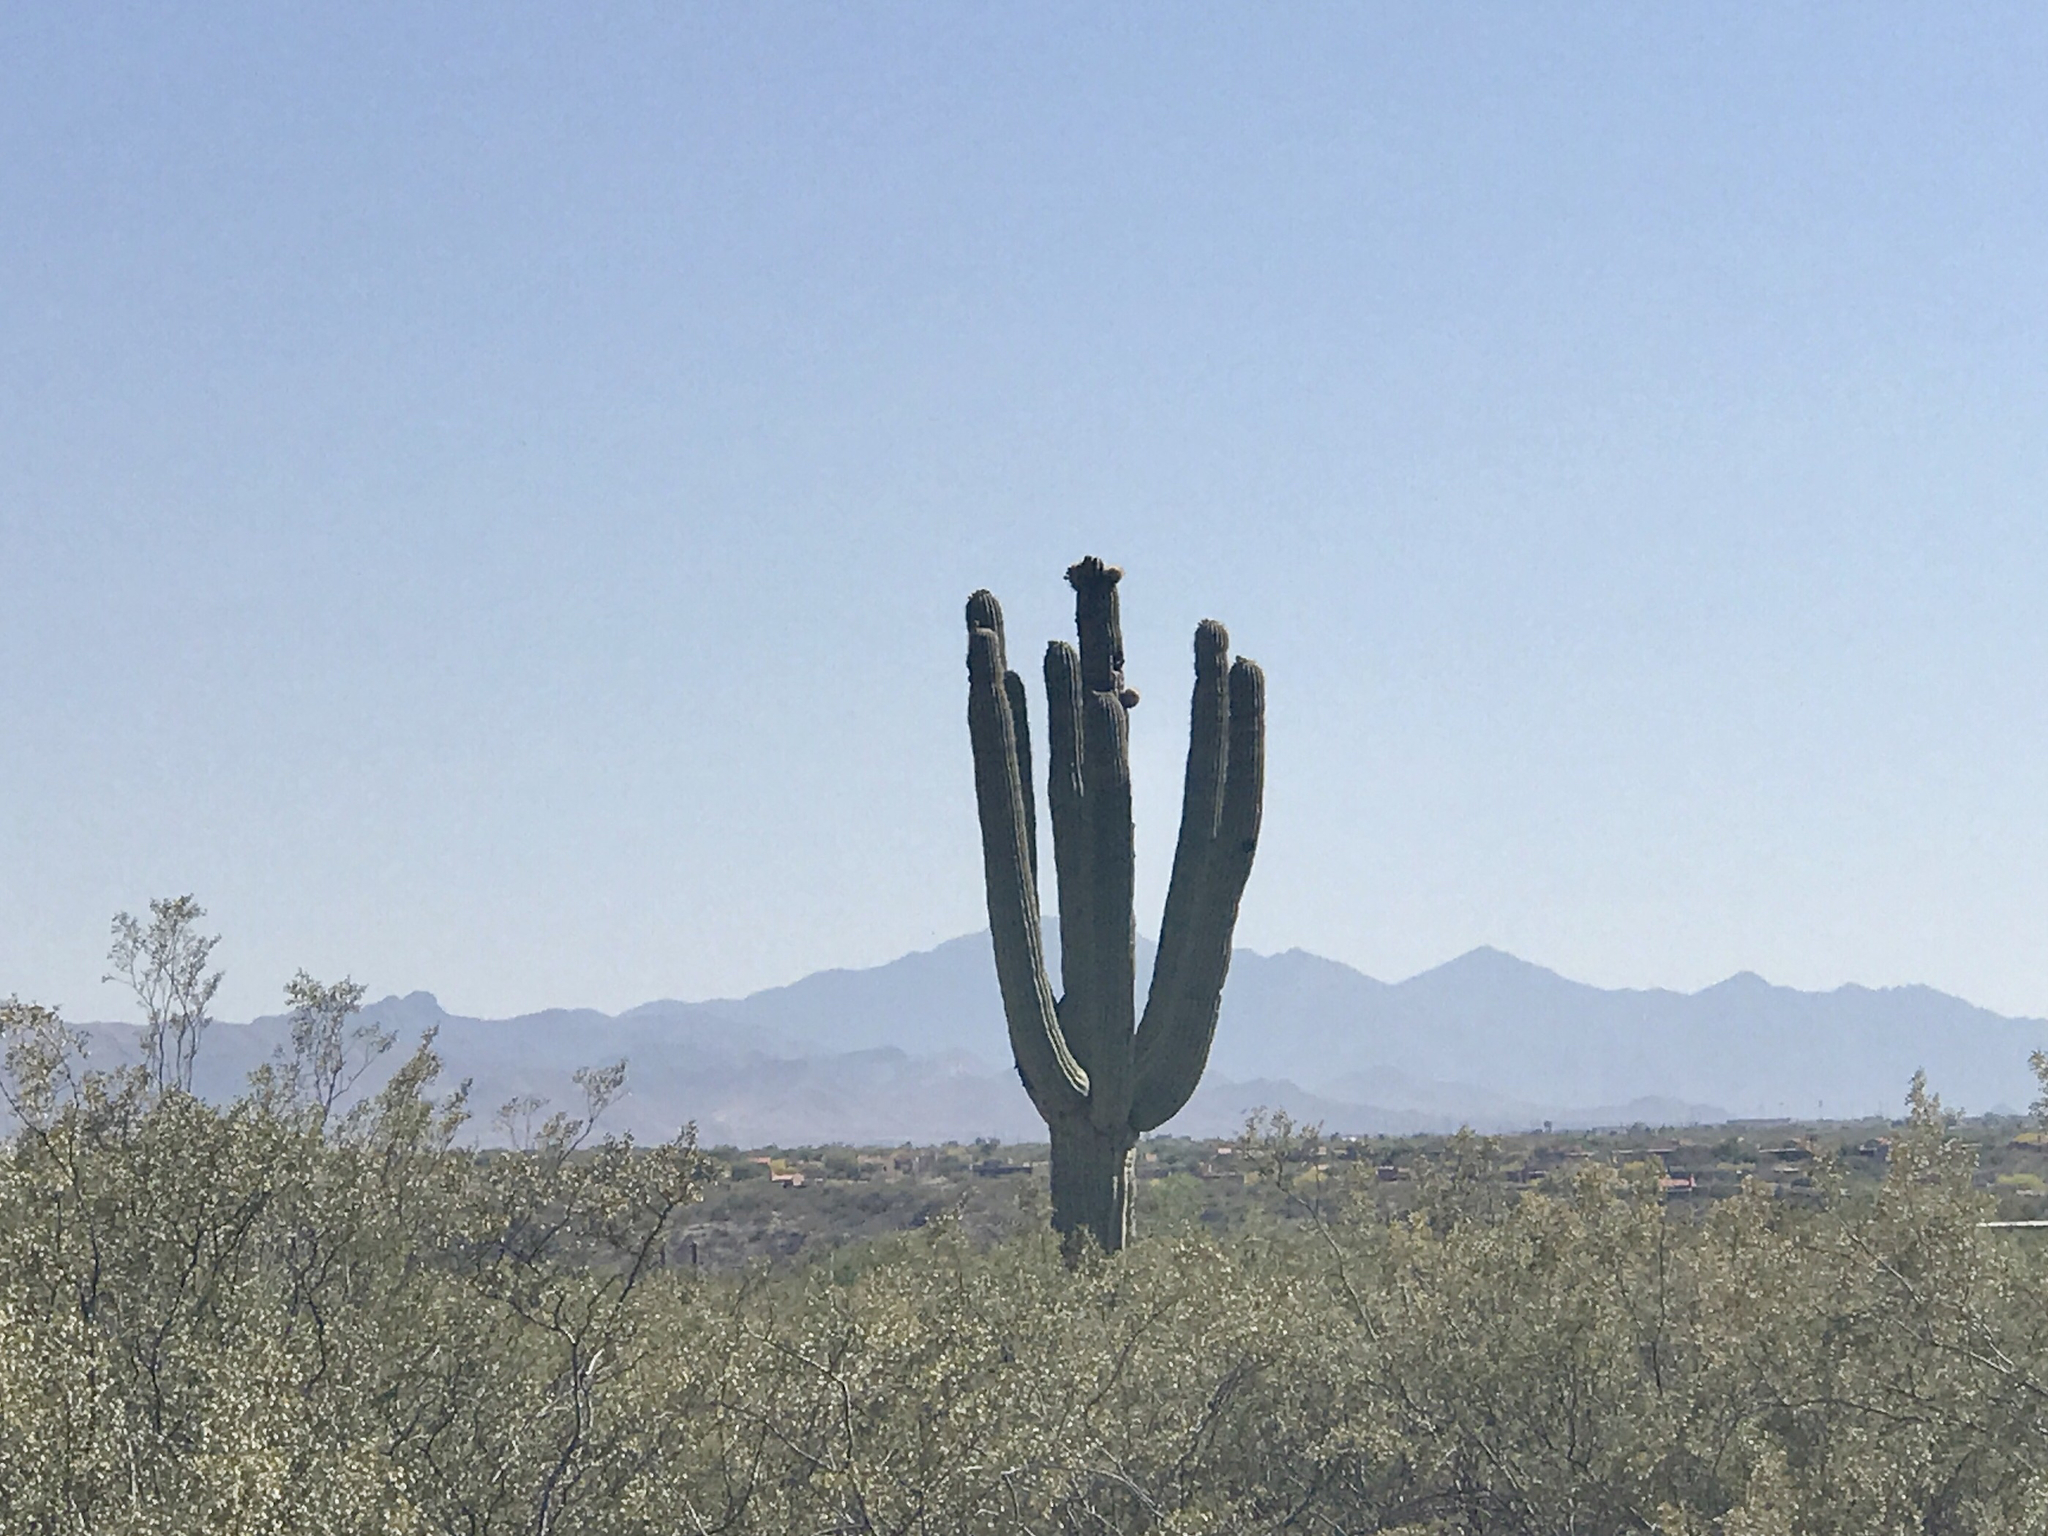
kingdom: Plantae
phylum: Tracheophyta
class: Magnoliopsida
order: Caryophyllales
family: Cactaceae
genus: Carnegiea
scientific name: Carnegiea gigantea
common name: Saguaro
